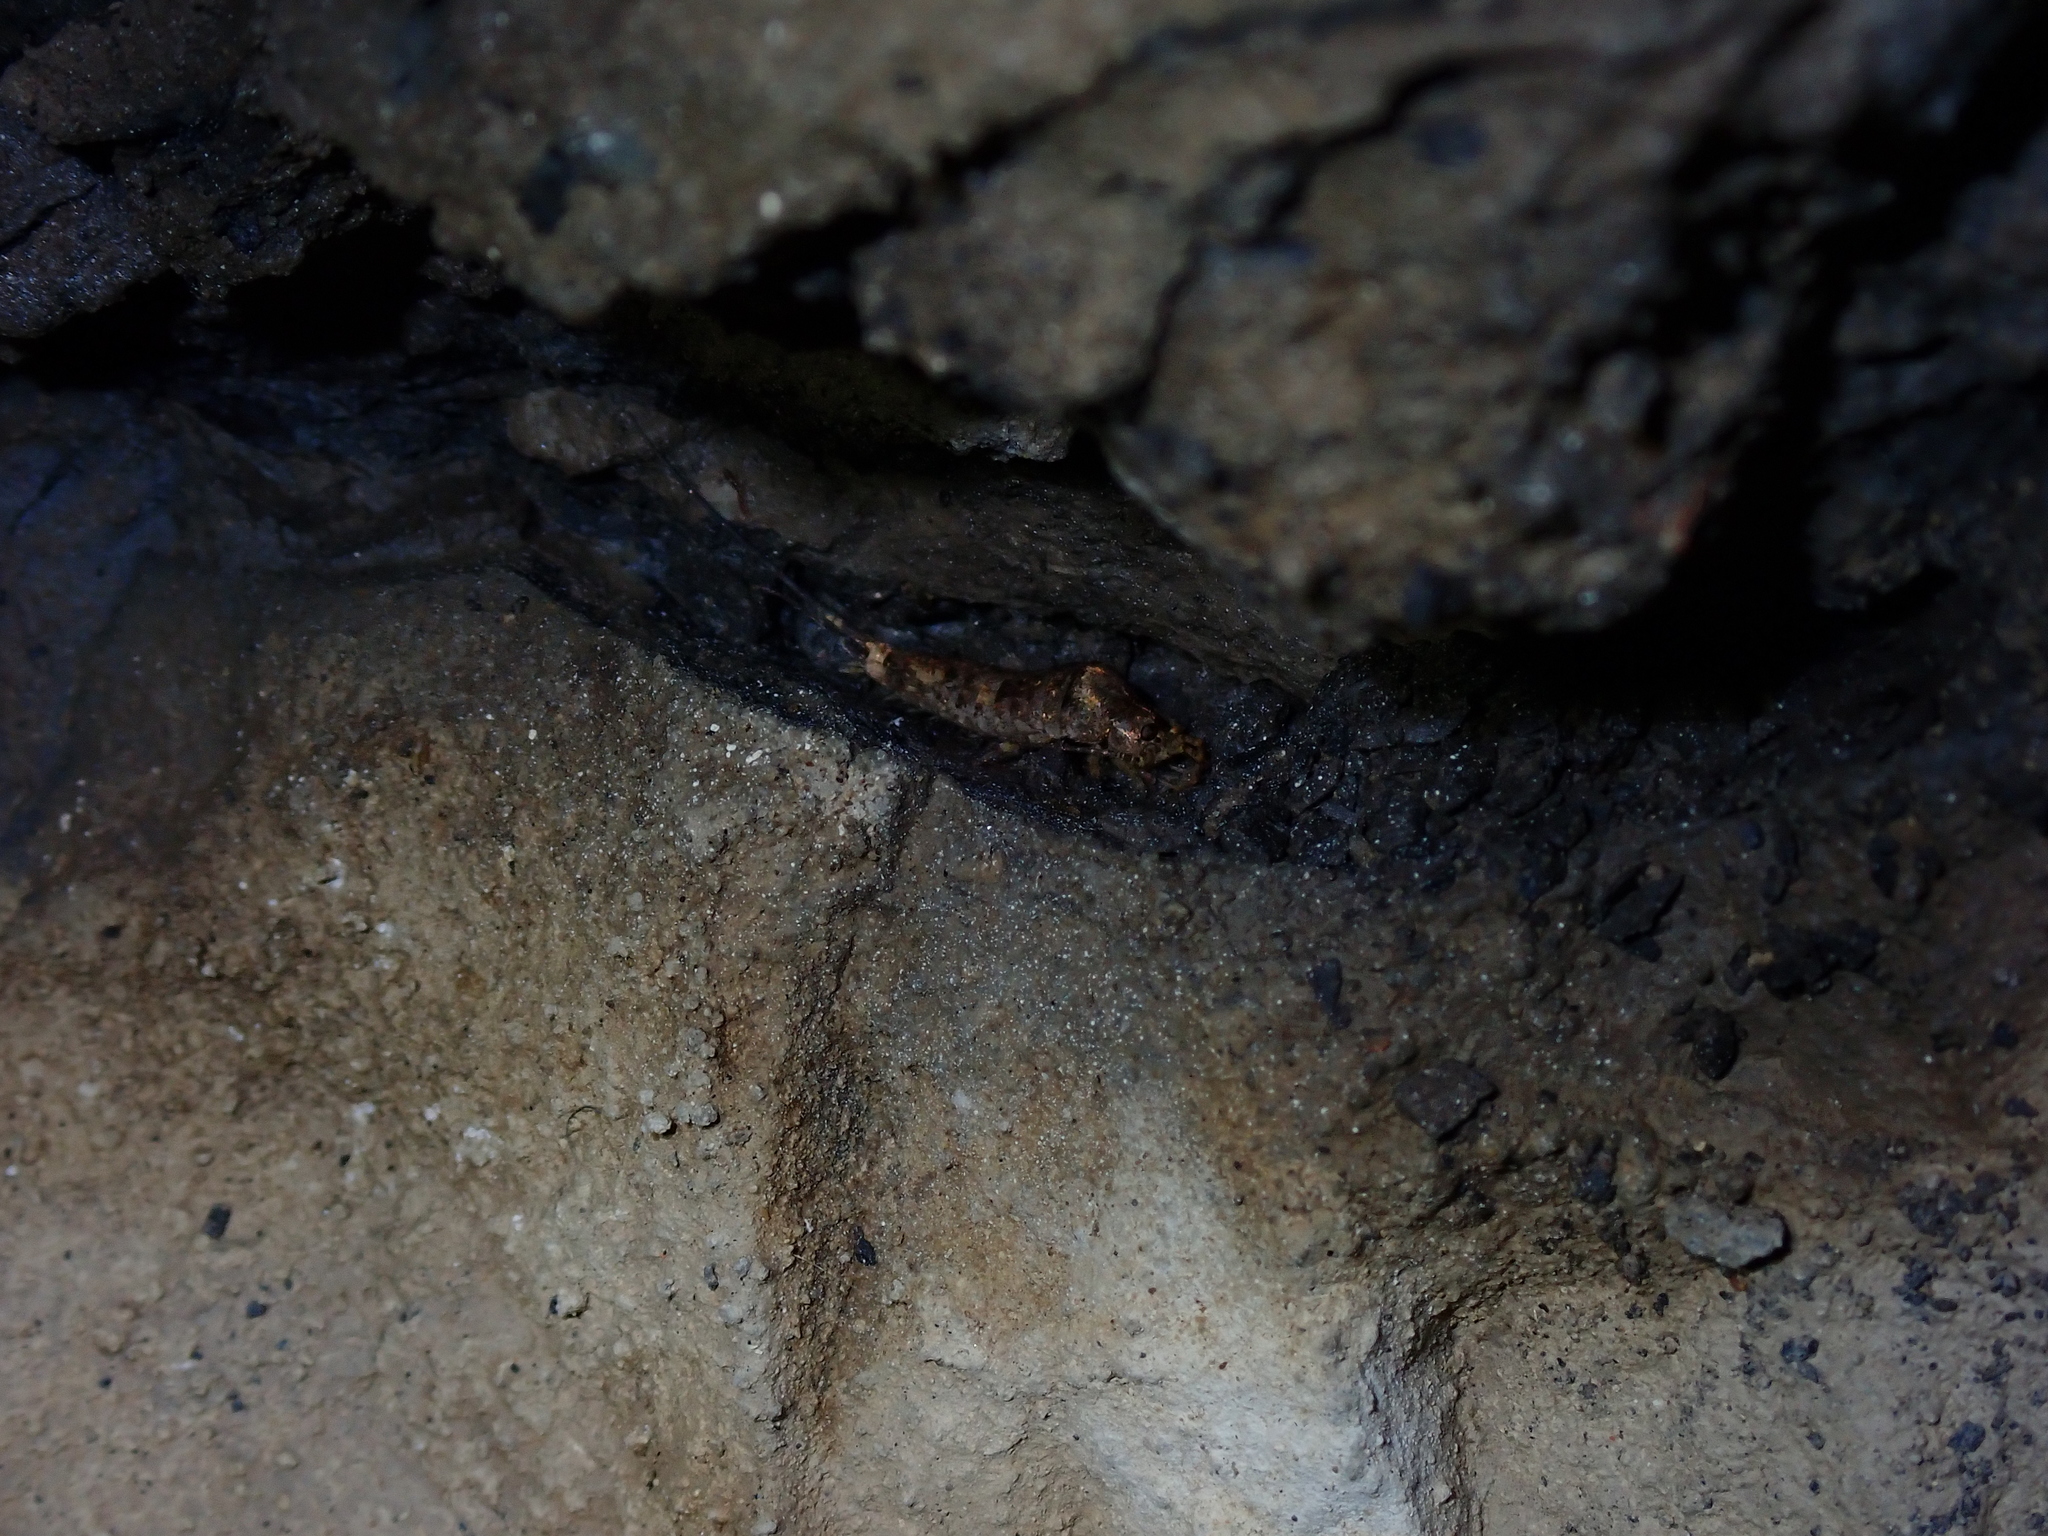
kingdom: Animalia
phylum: Arthropoda
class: Insecta
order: Archaeognatha
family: Machilidae
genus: Trigoniophthalmus
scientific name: Trigoniophthalmus alternatus
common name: Jumping bristletail
